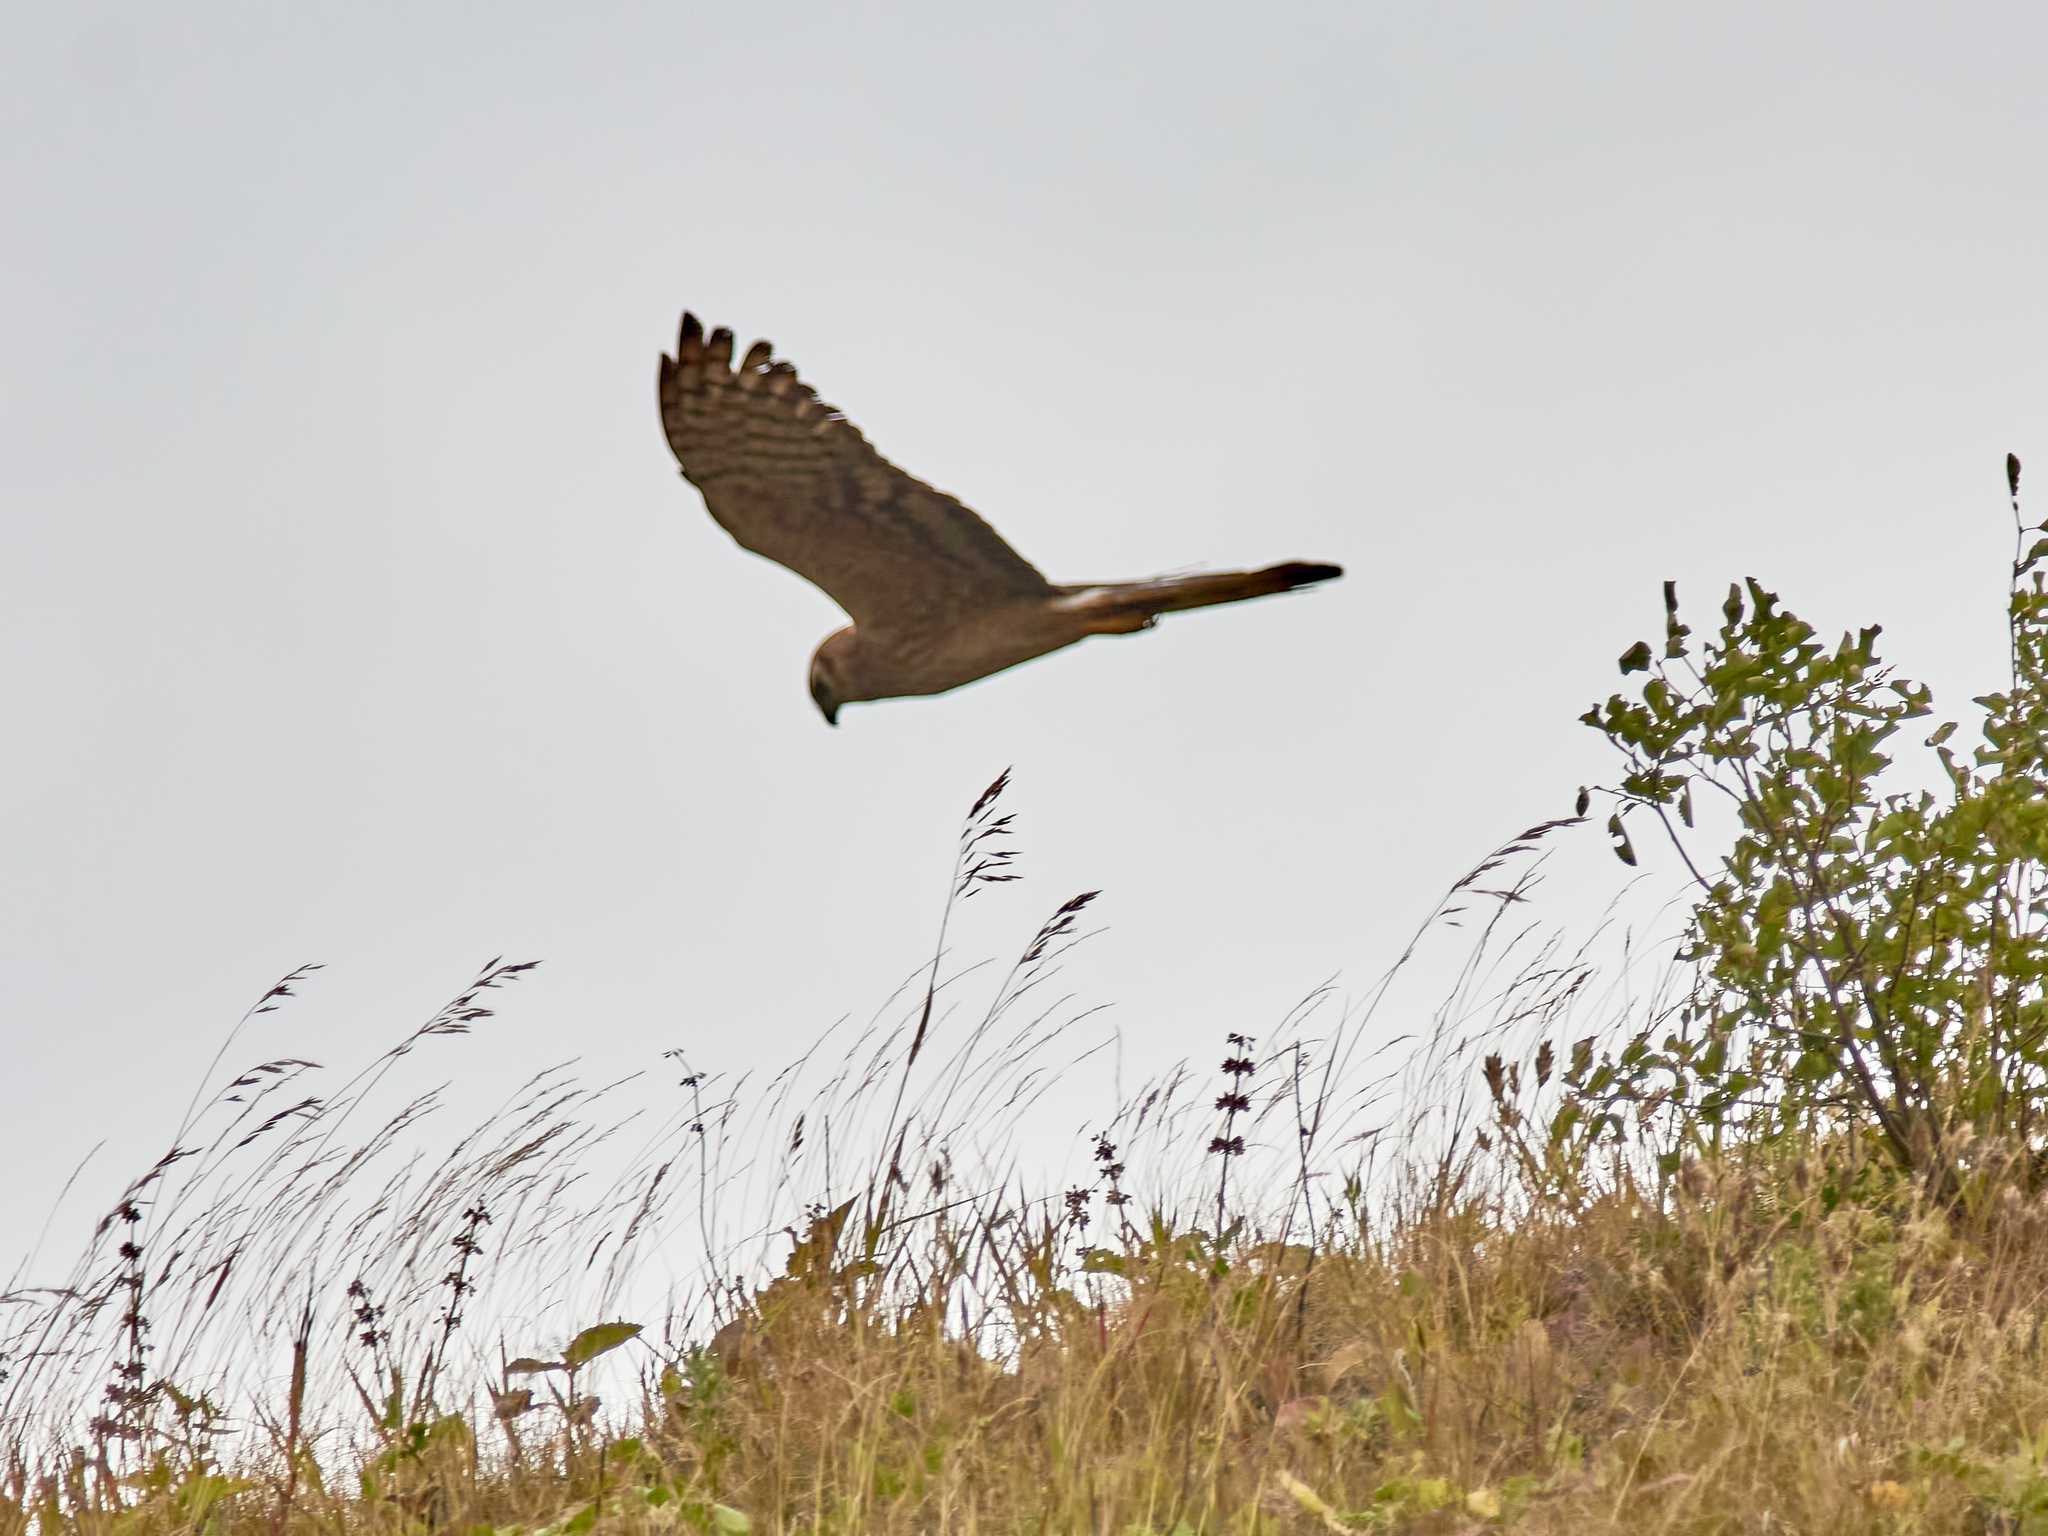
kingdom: Animalia
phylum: Chordata
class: Aves
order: Accipitriformes
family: Accipitridae
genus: Circus
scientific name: Circus pygargus
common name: Montagu's harrier
